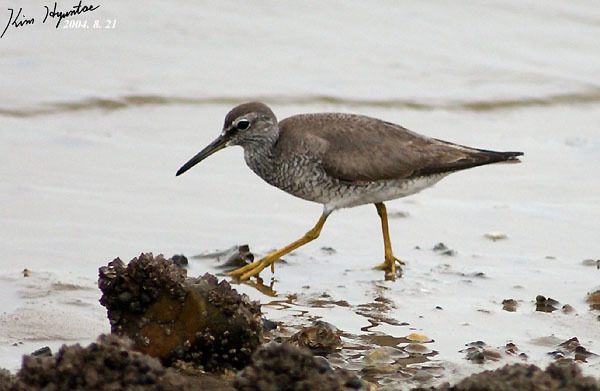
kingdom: Animalia
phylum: Chordata
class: Aves
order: Charadriiformes
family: Scolopacidae
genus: Tringa
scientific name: Tringa brevipes
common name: Grey-tailed tattler
